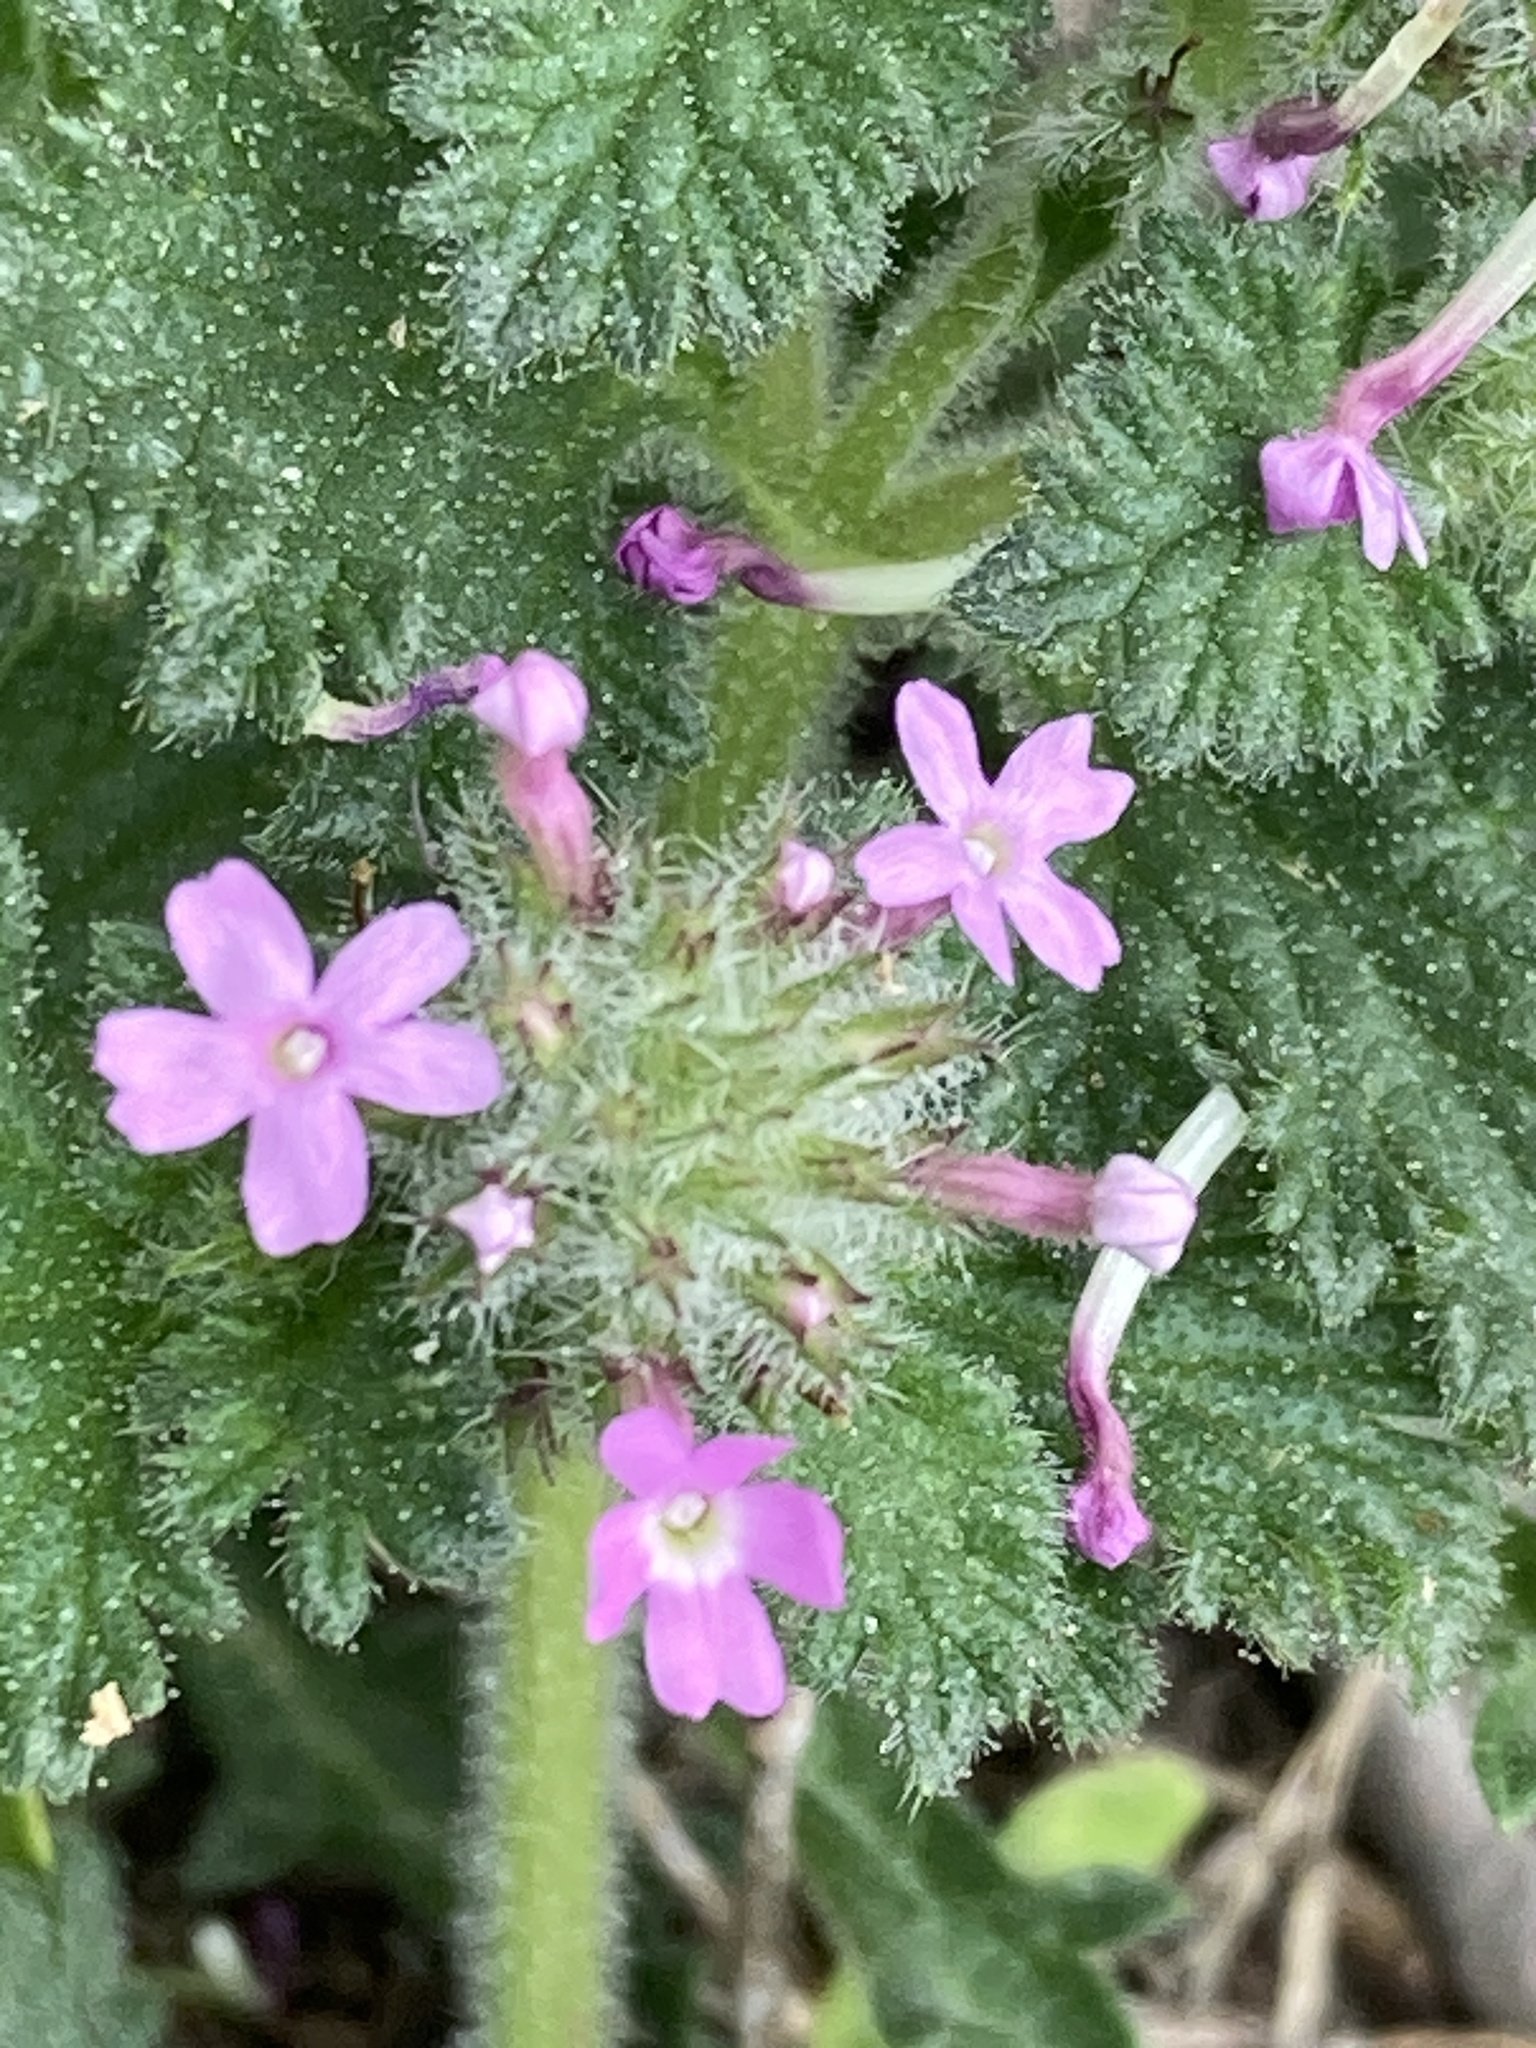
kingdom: Plantae
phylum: Tracheophyta
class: Magnoliopsida
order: Lamiales
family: Verbenaceae
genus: Verbena
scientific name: Verbena pumila
